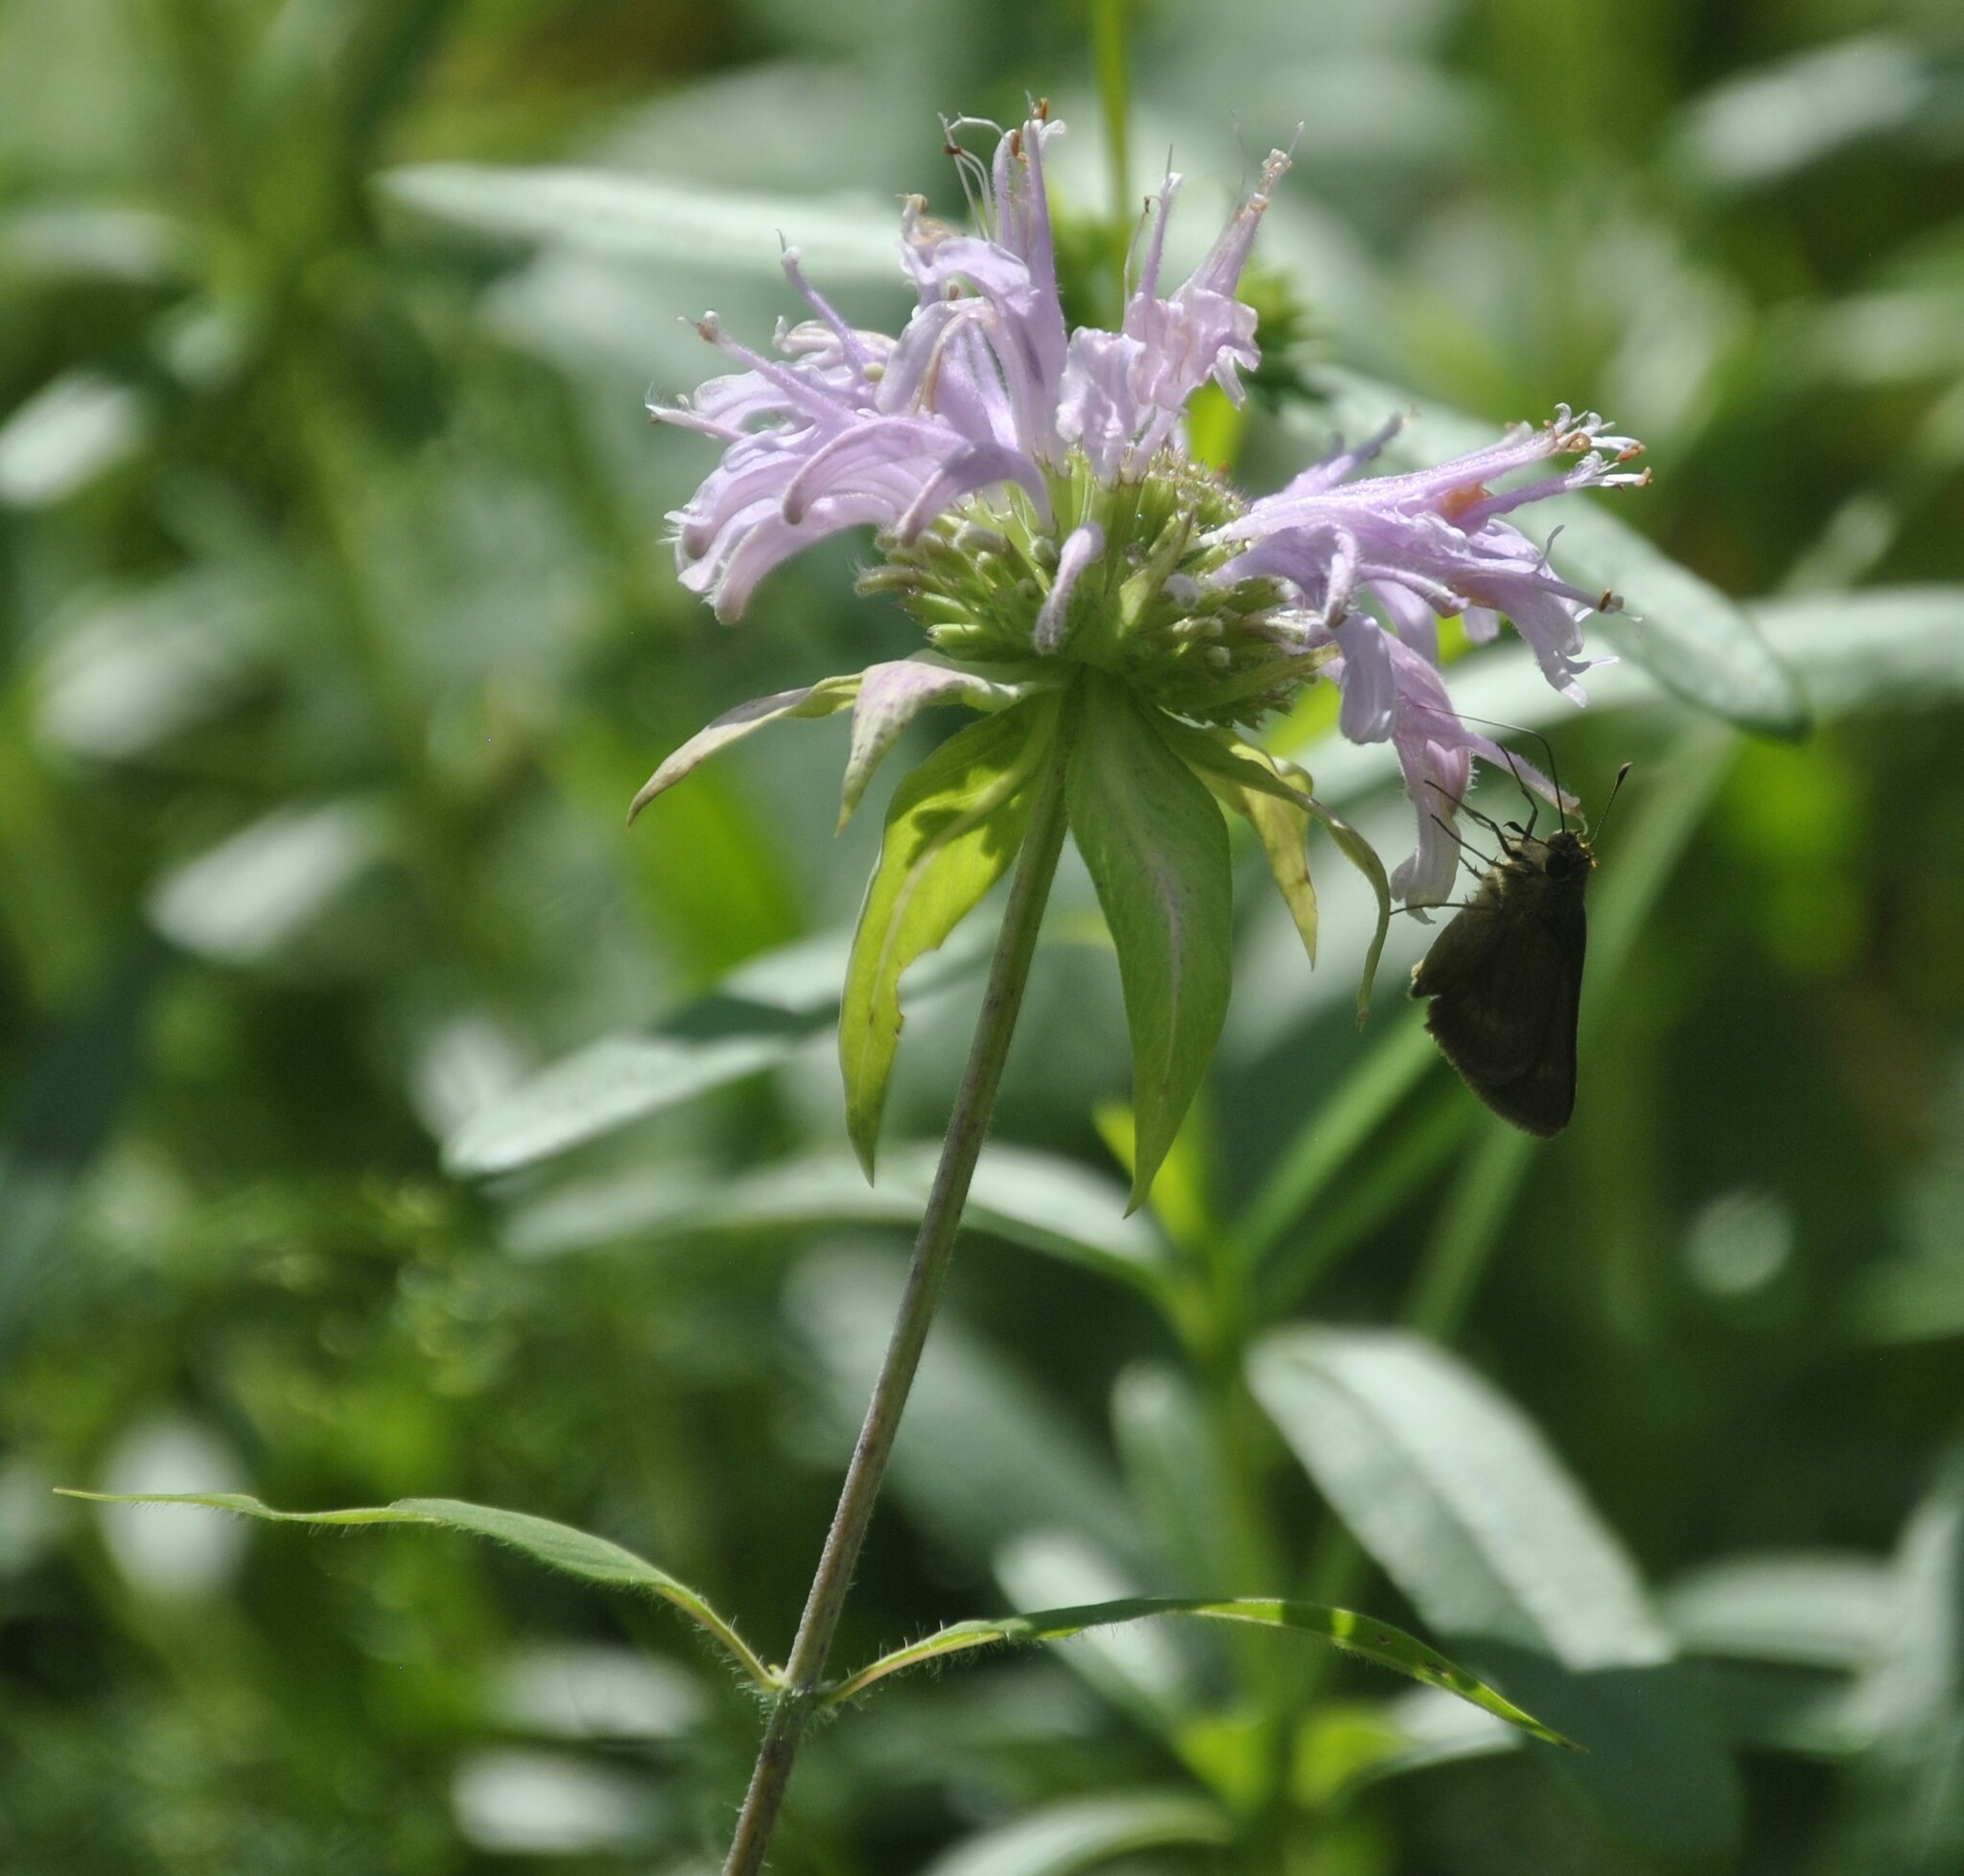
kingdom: Plantae
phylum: Tracheophyta
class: Magnoliopsida
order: Lamiales
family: Lamiaceae
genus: Monarda
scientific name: Monarda fistulosa
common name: Purple beebalm
